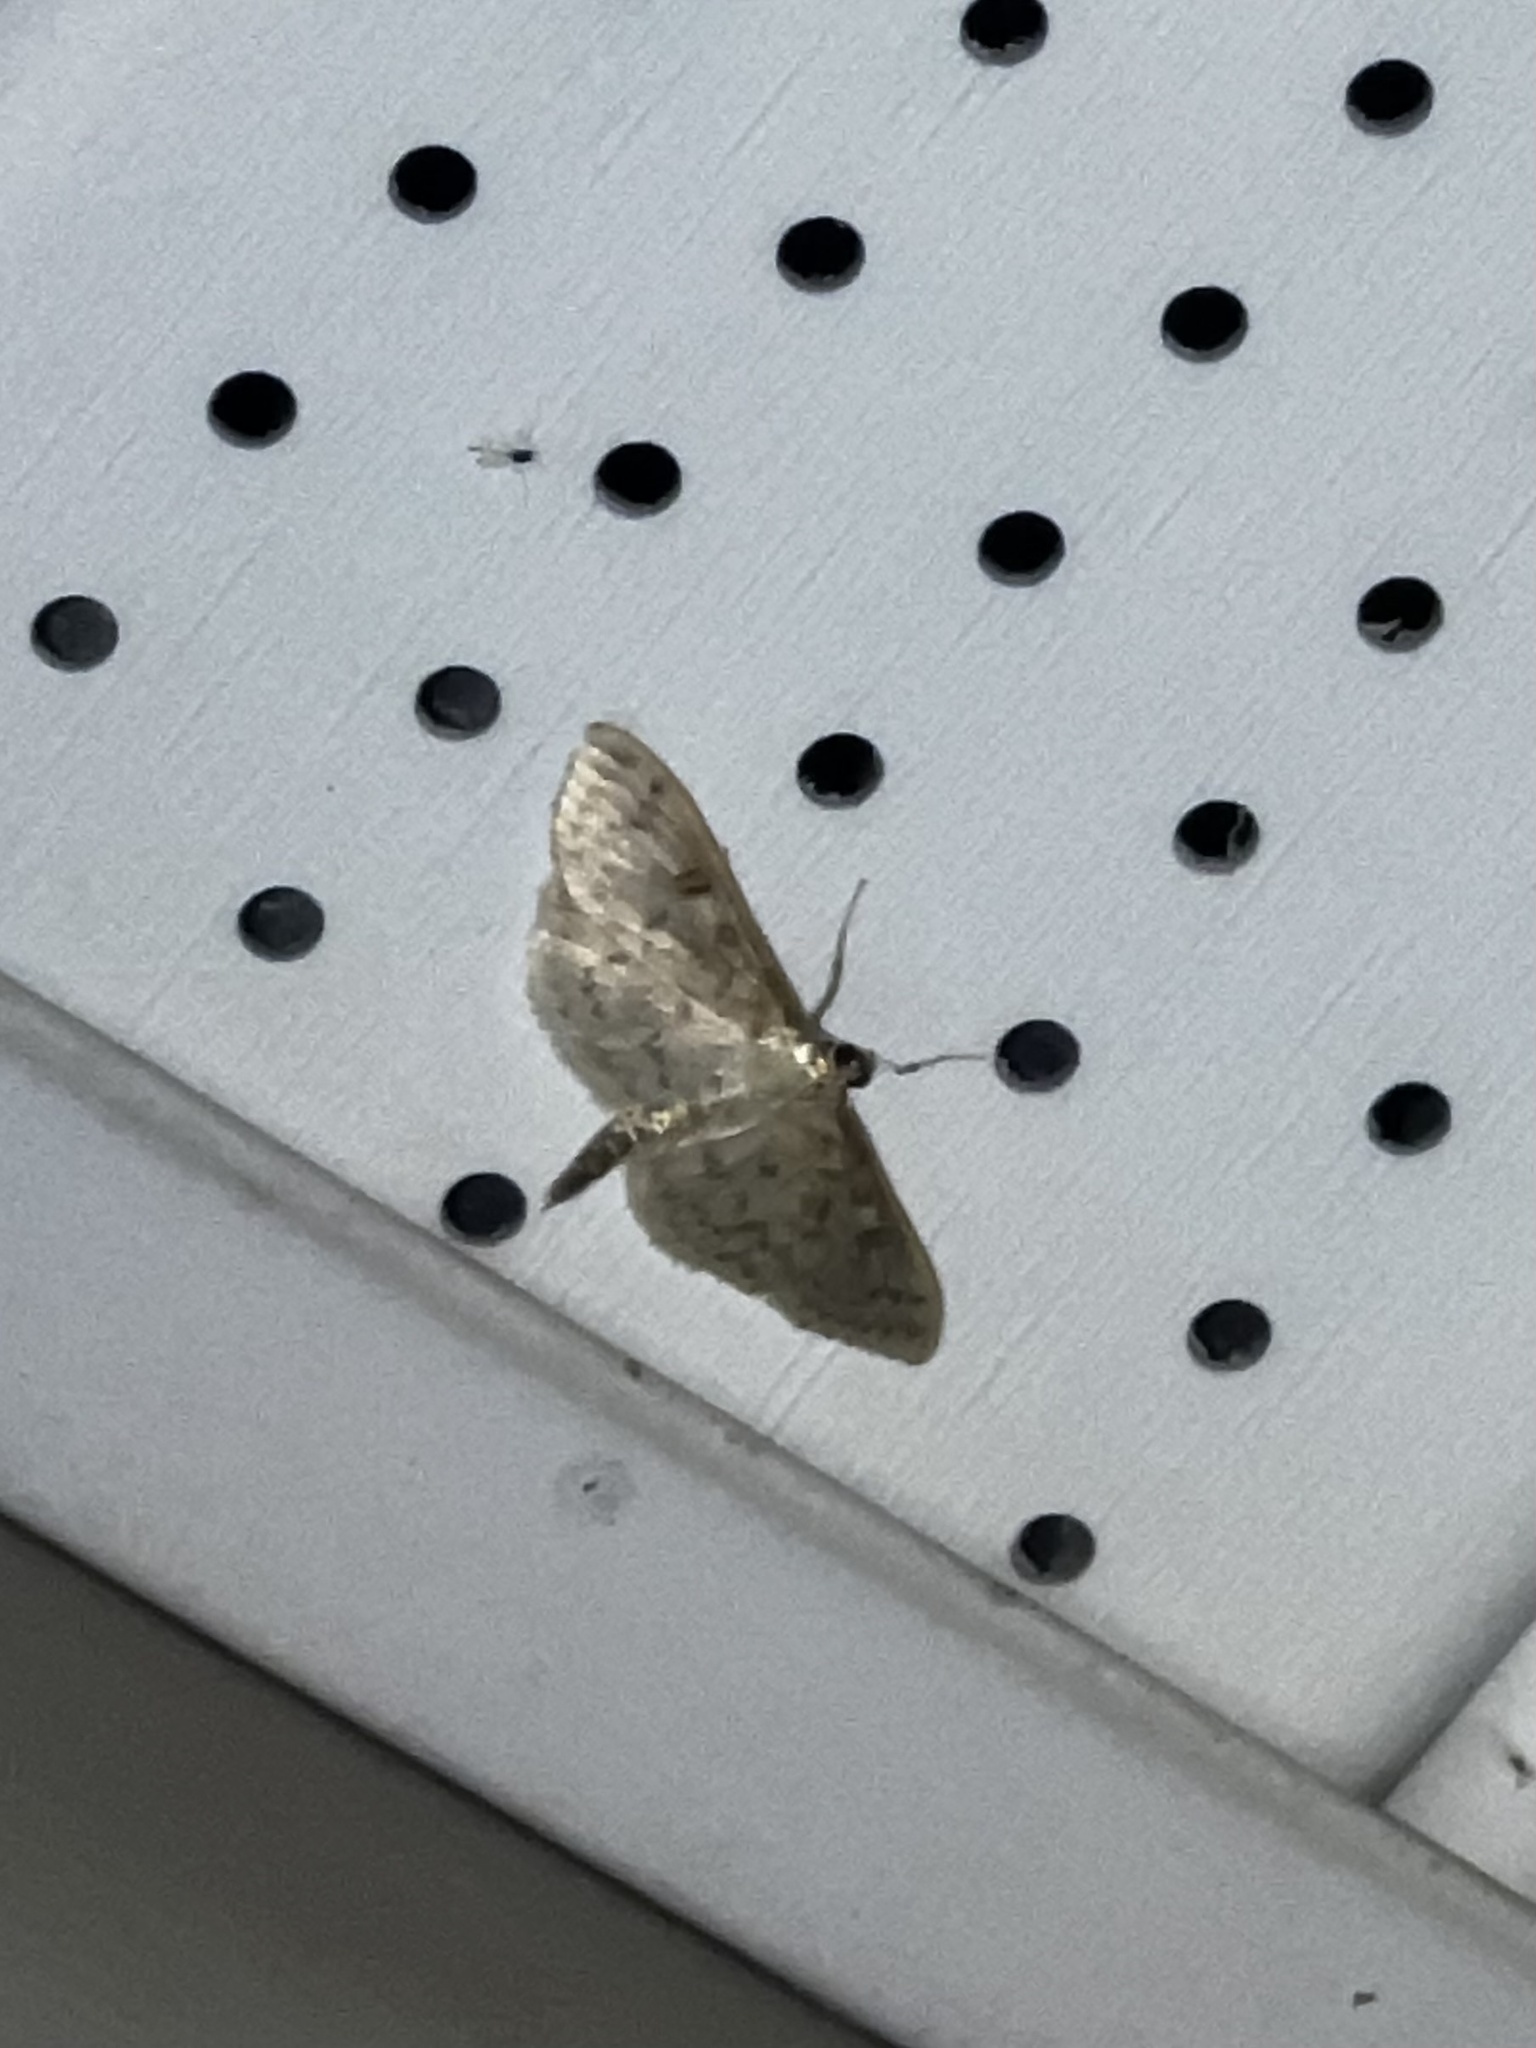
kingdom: Animalia
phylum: Arthropoda
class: Insecta
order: Lepidoptera
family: Crambidae
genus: Herpetogramma
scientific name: Herpetogramma aquilonalis
